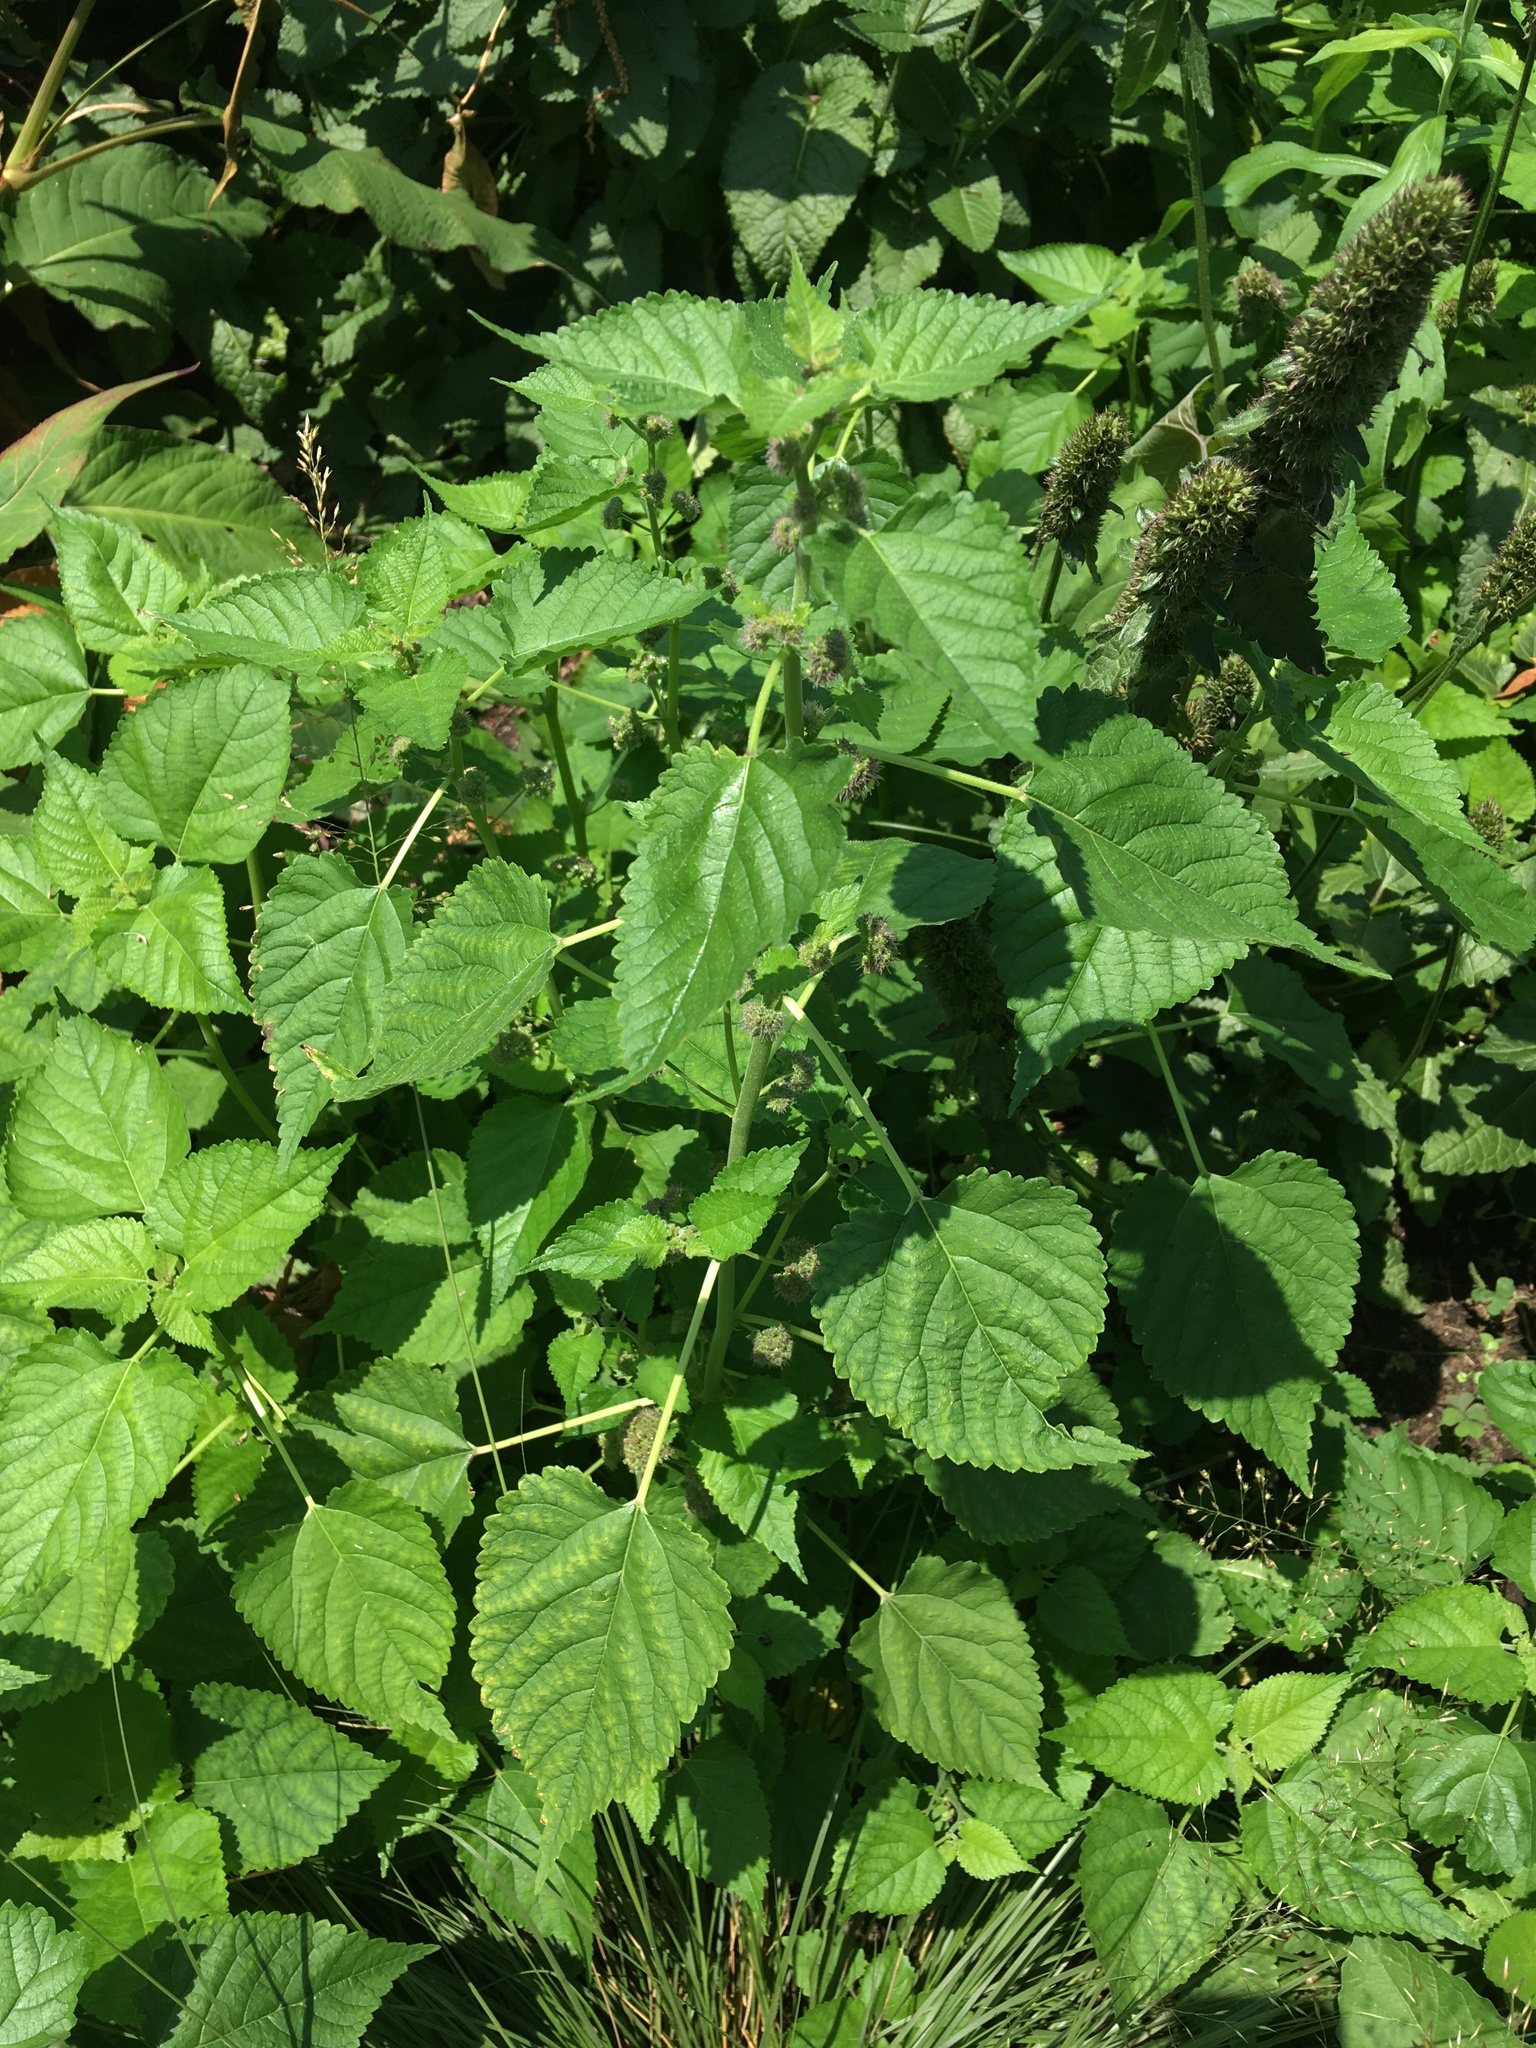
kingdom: Plantae
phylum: Tracheophyta
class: Magnoliopsida
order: Rosales
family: Moraceae
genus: Fatoua
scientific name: Fatoua villosa
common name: Hairy crabweed
